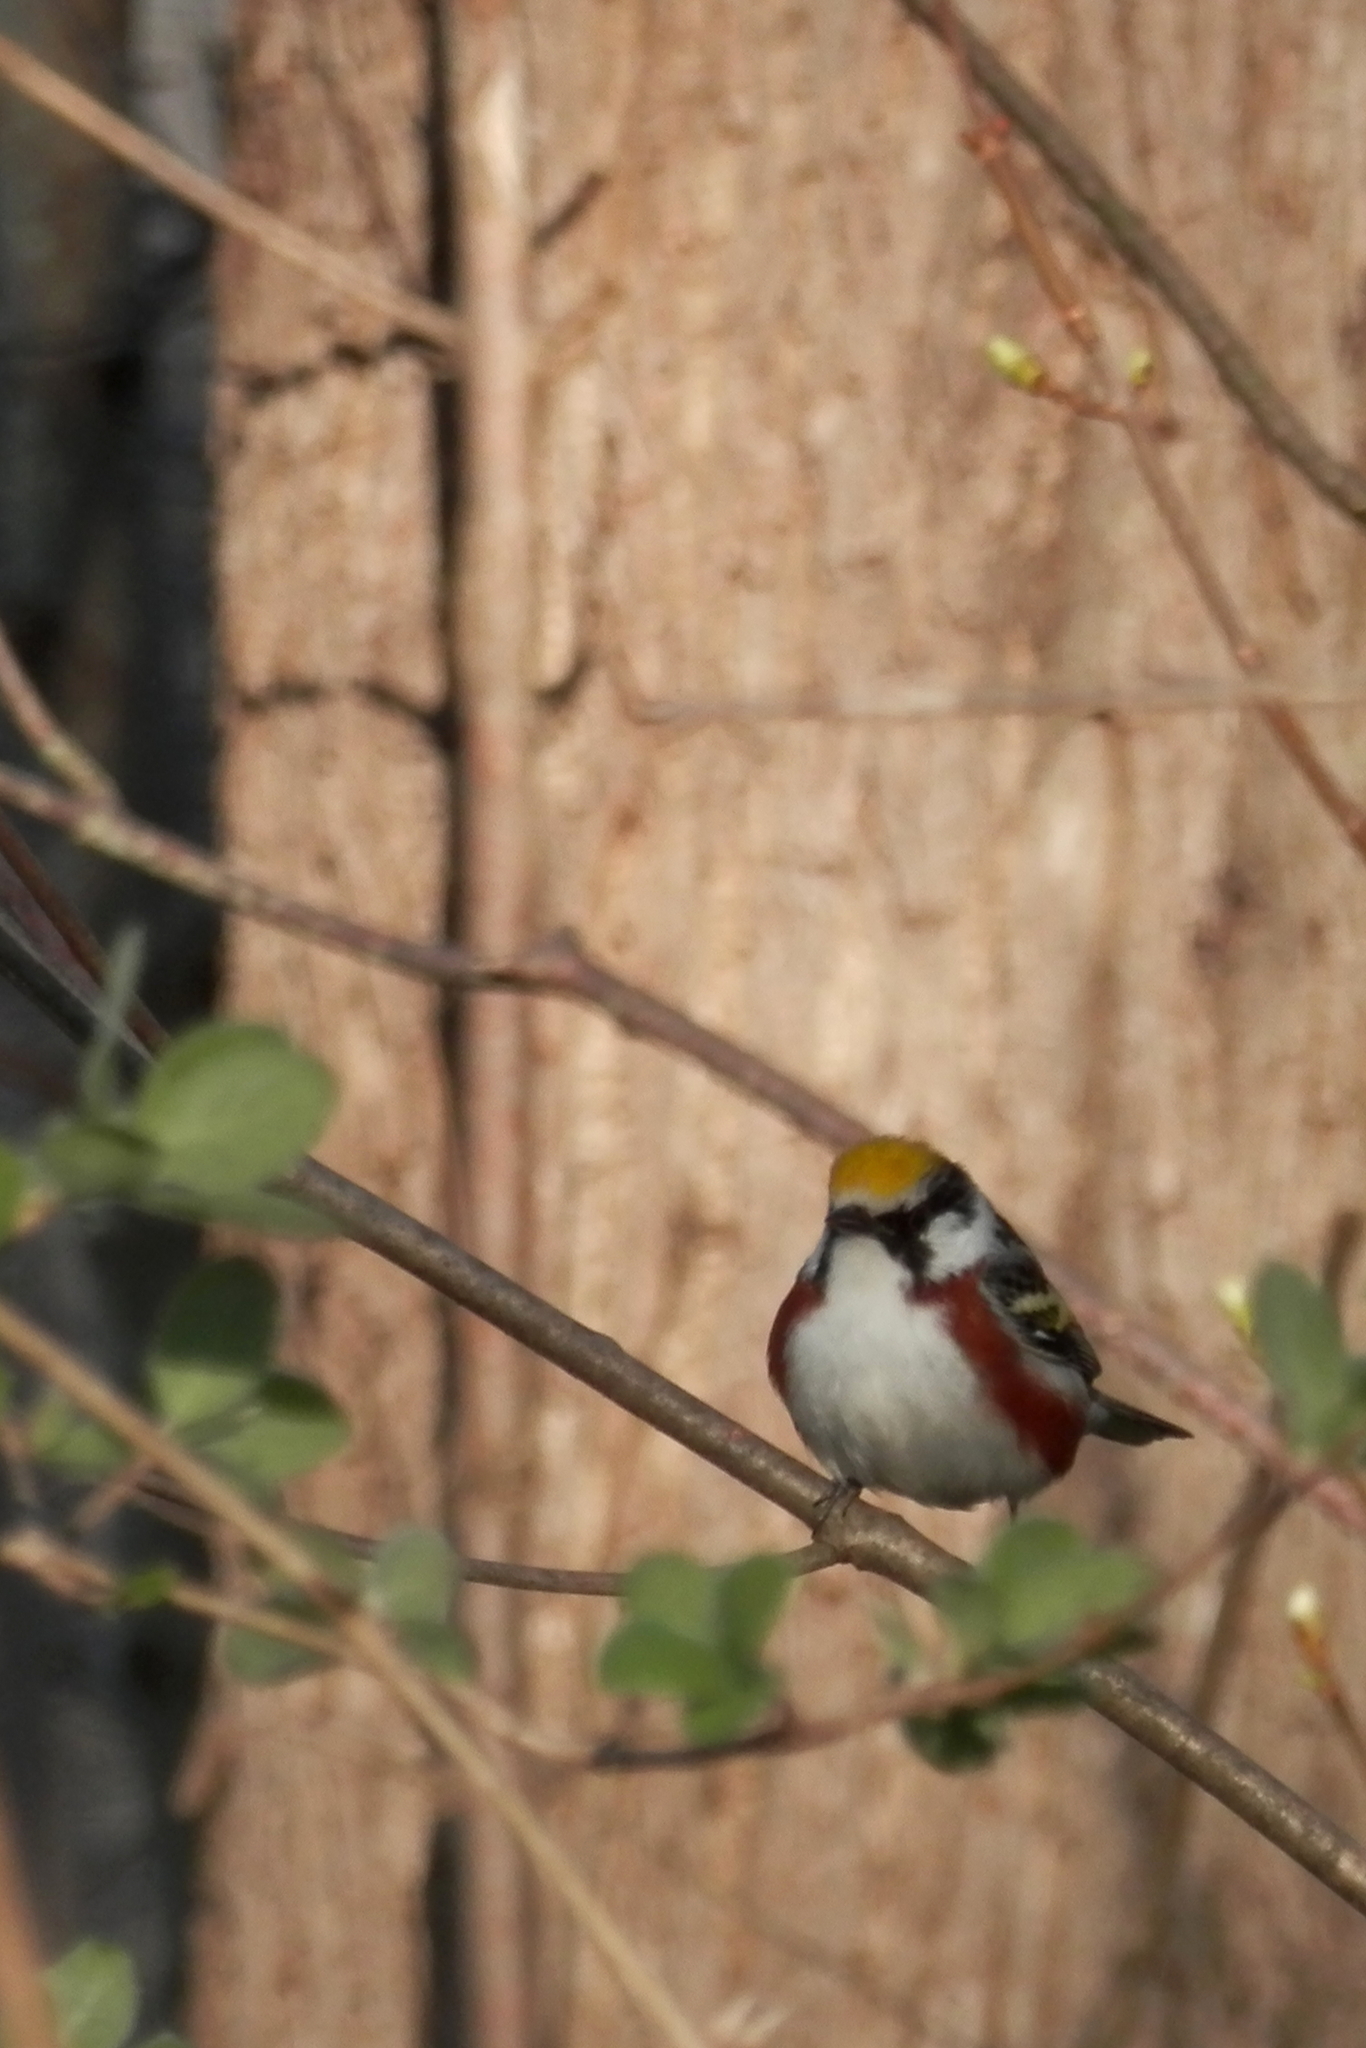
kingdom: Animalia
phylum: Chordata
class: Aves
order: Passeriformes
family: Parulidae
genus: Setophaga
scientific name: Setophaga pensylvanica
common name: Chestnut-sided warbler
